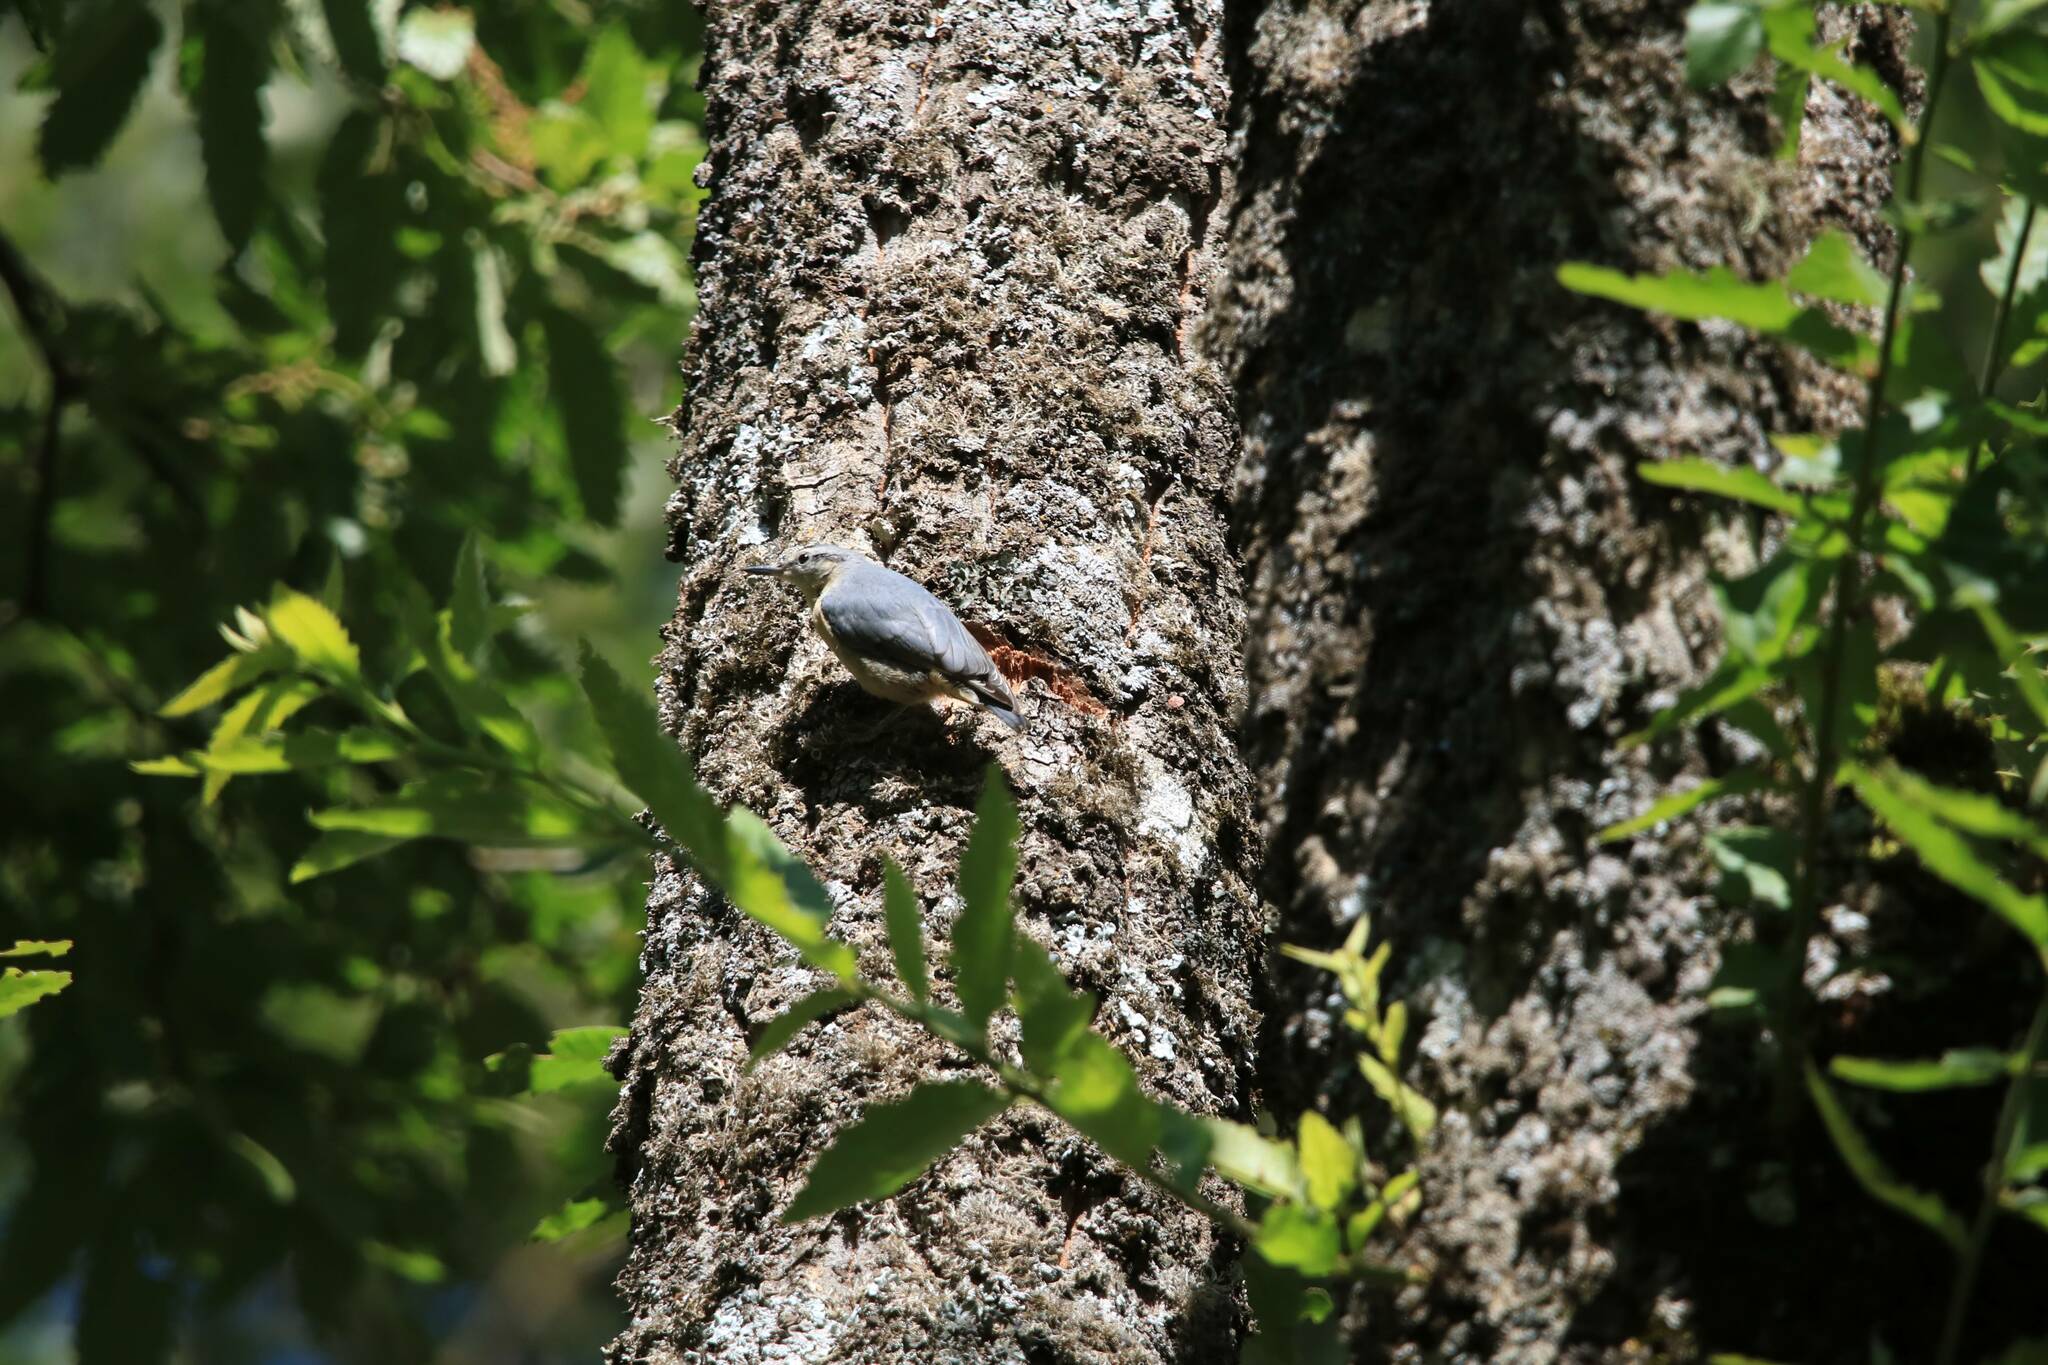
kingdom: Animalia
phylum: Chordata
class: Aves
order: Passeriformes
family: Sittidae
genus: Sitta
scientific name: Sitta ledanti
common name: Algerian nuthatch
